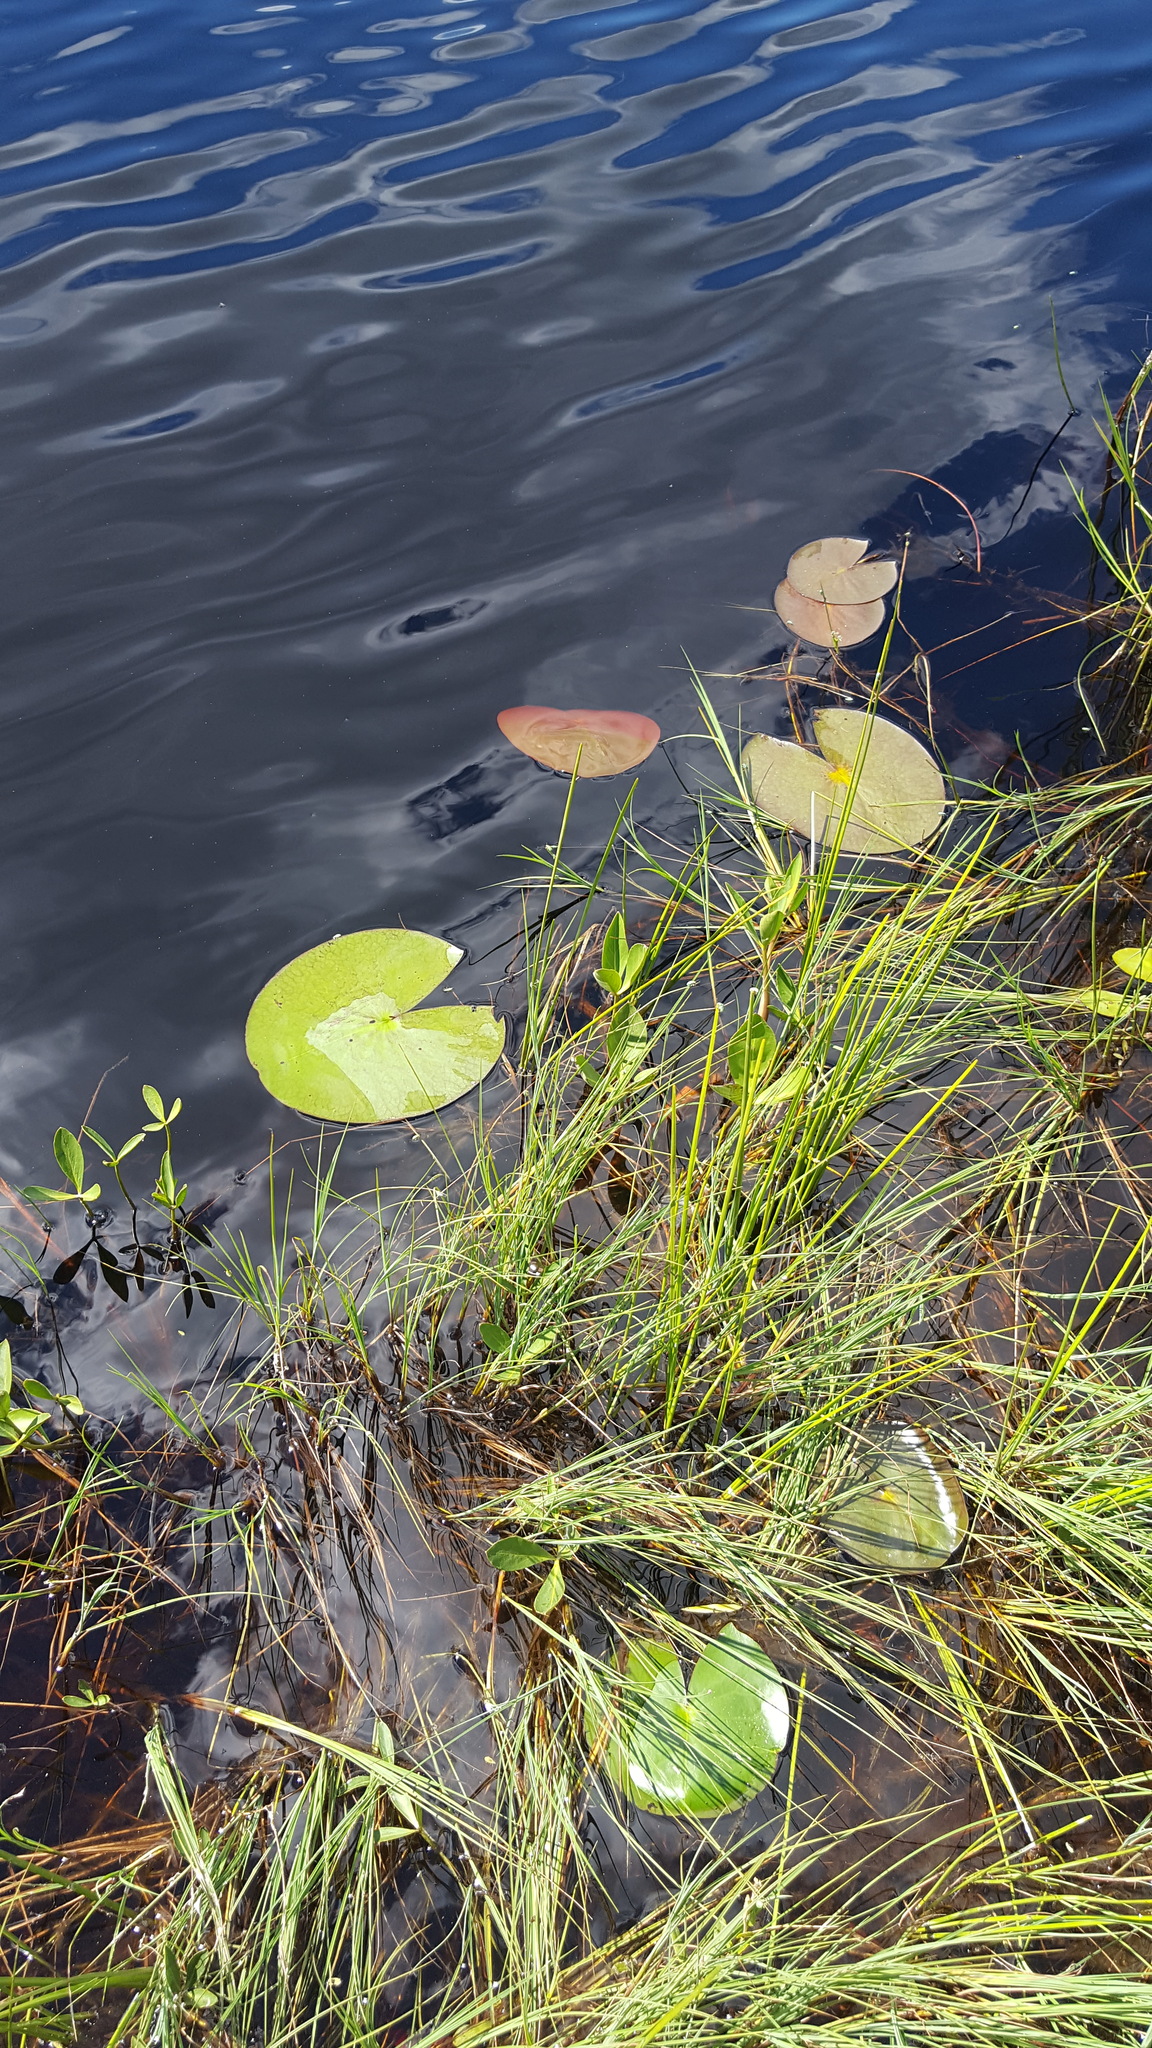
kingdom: Plantae
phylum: Tracheophyta
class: Magnoliopsida
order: Nymphaeales
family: Nymphaeaceae
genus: Nymphaea
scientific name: Nymphaea odorata
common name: Fragrant water-lily
